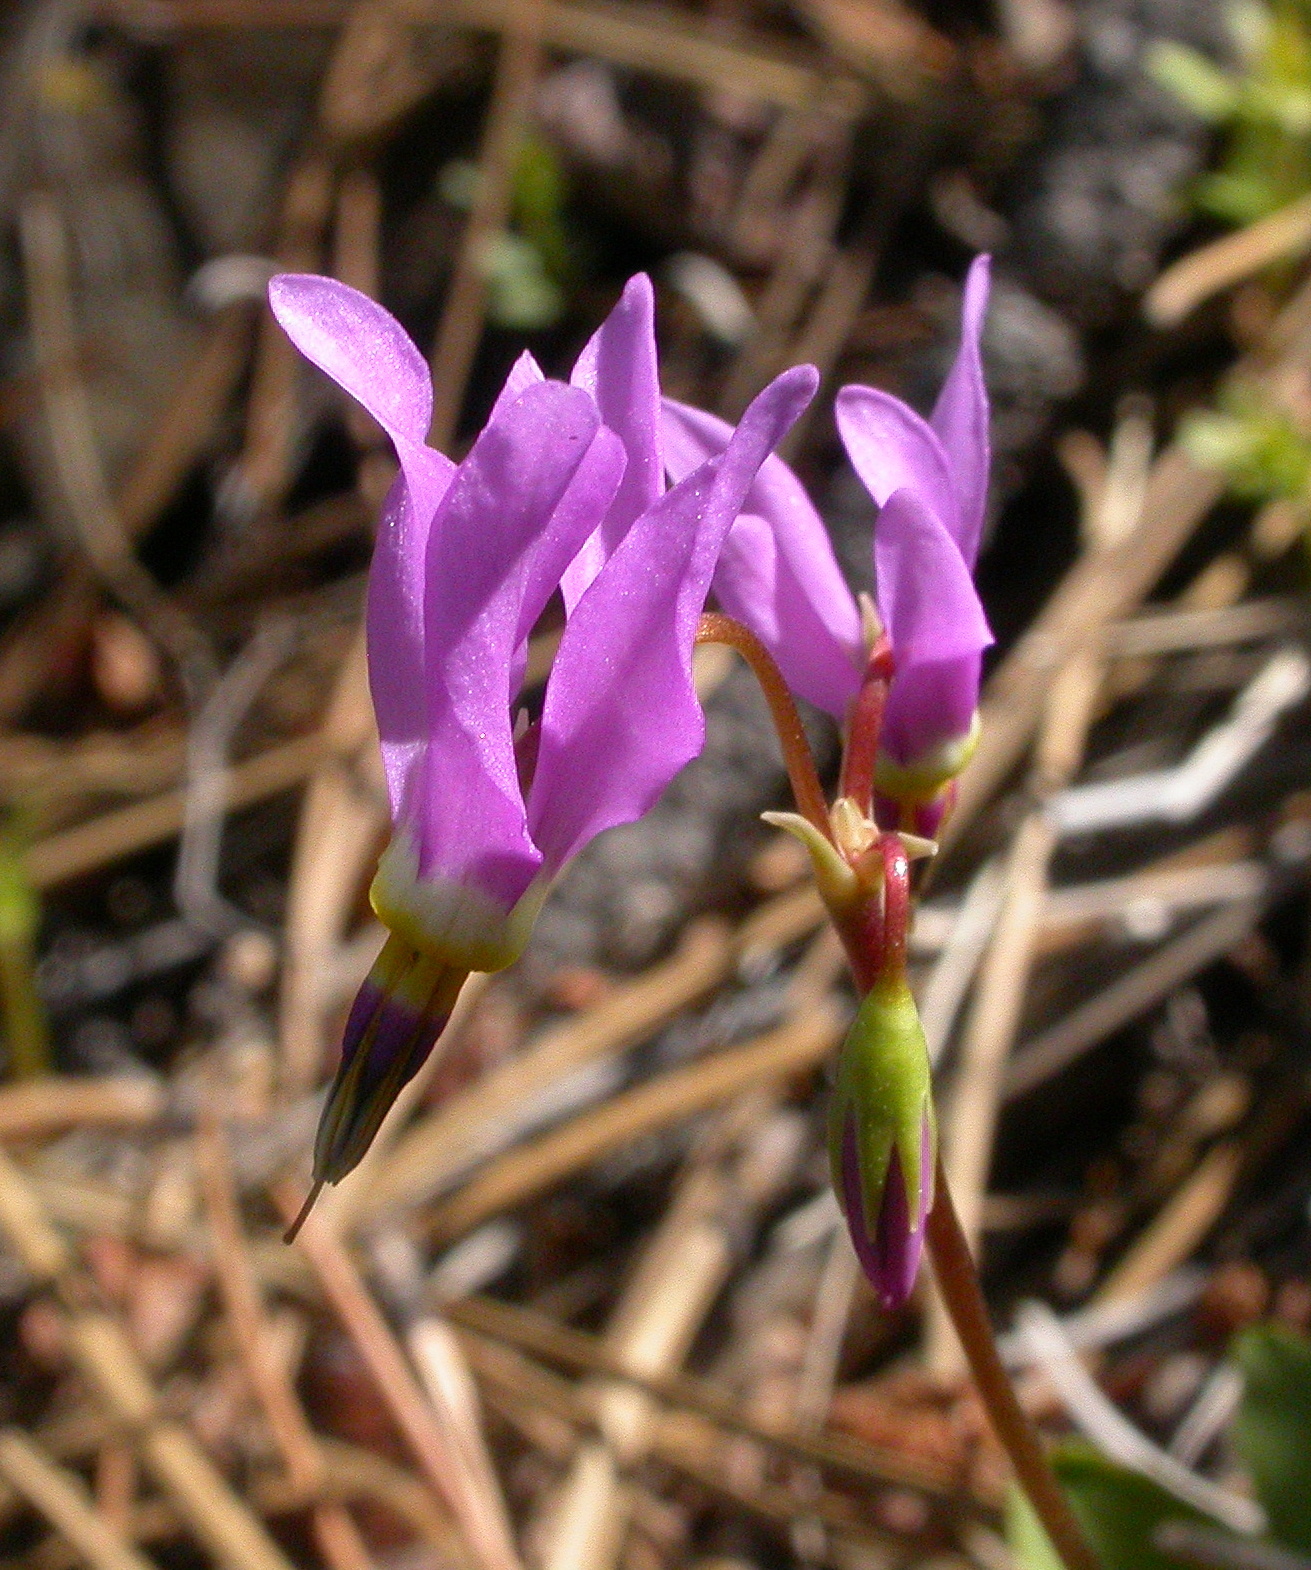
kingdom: Plantae
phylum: Tracheophyta
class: Magnoliopsida
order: Ericales
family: Primulaceae
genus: Dodecatheon
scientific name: Dodecatheon pulchellum
